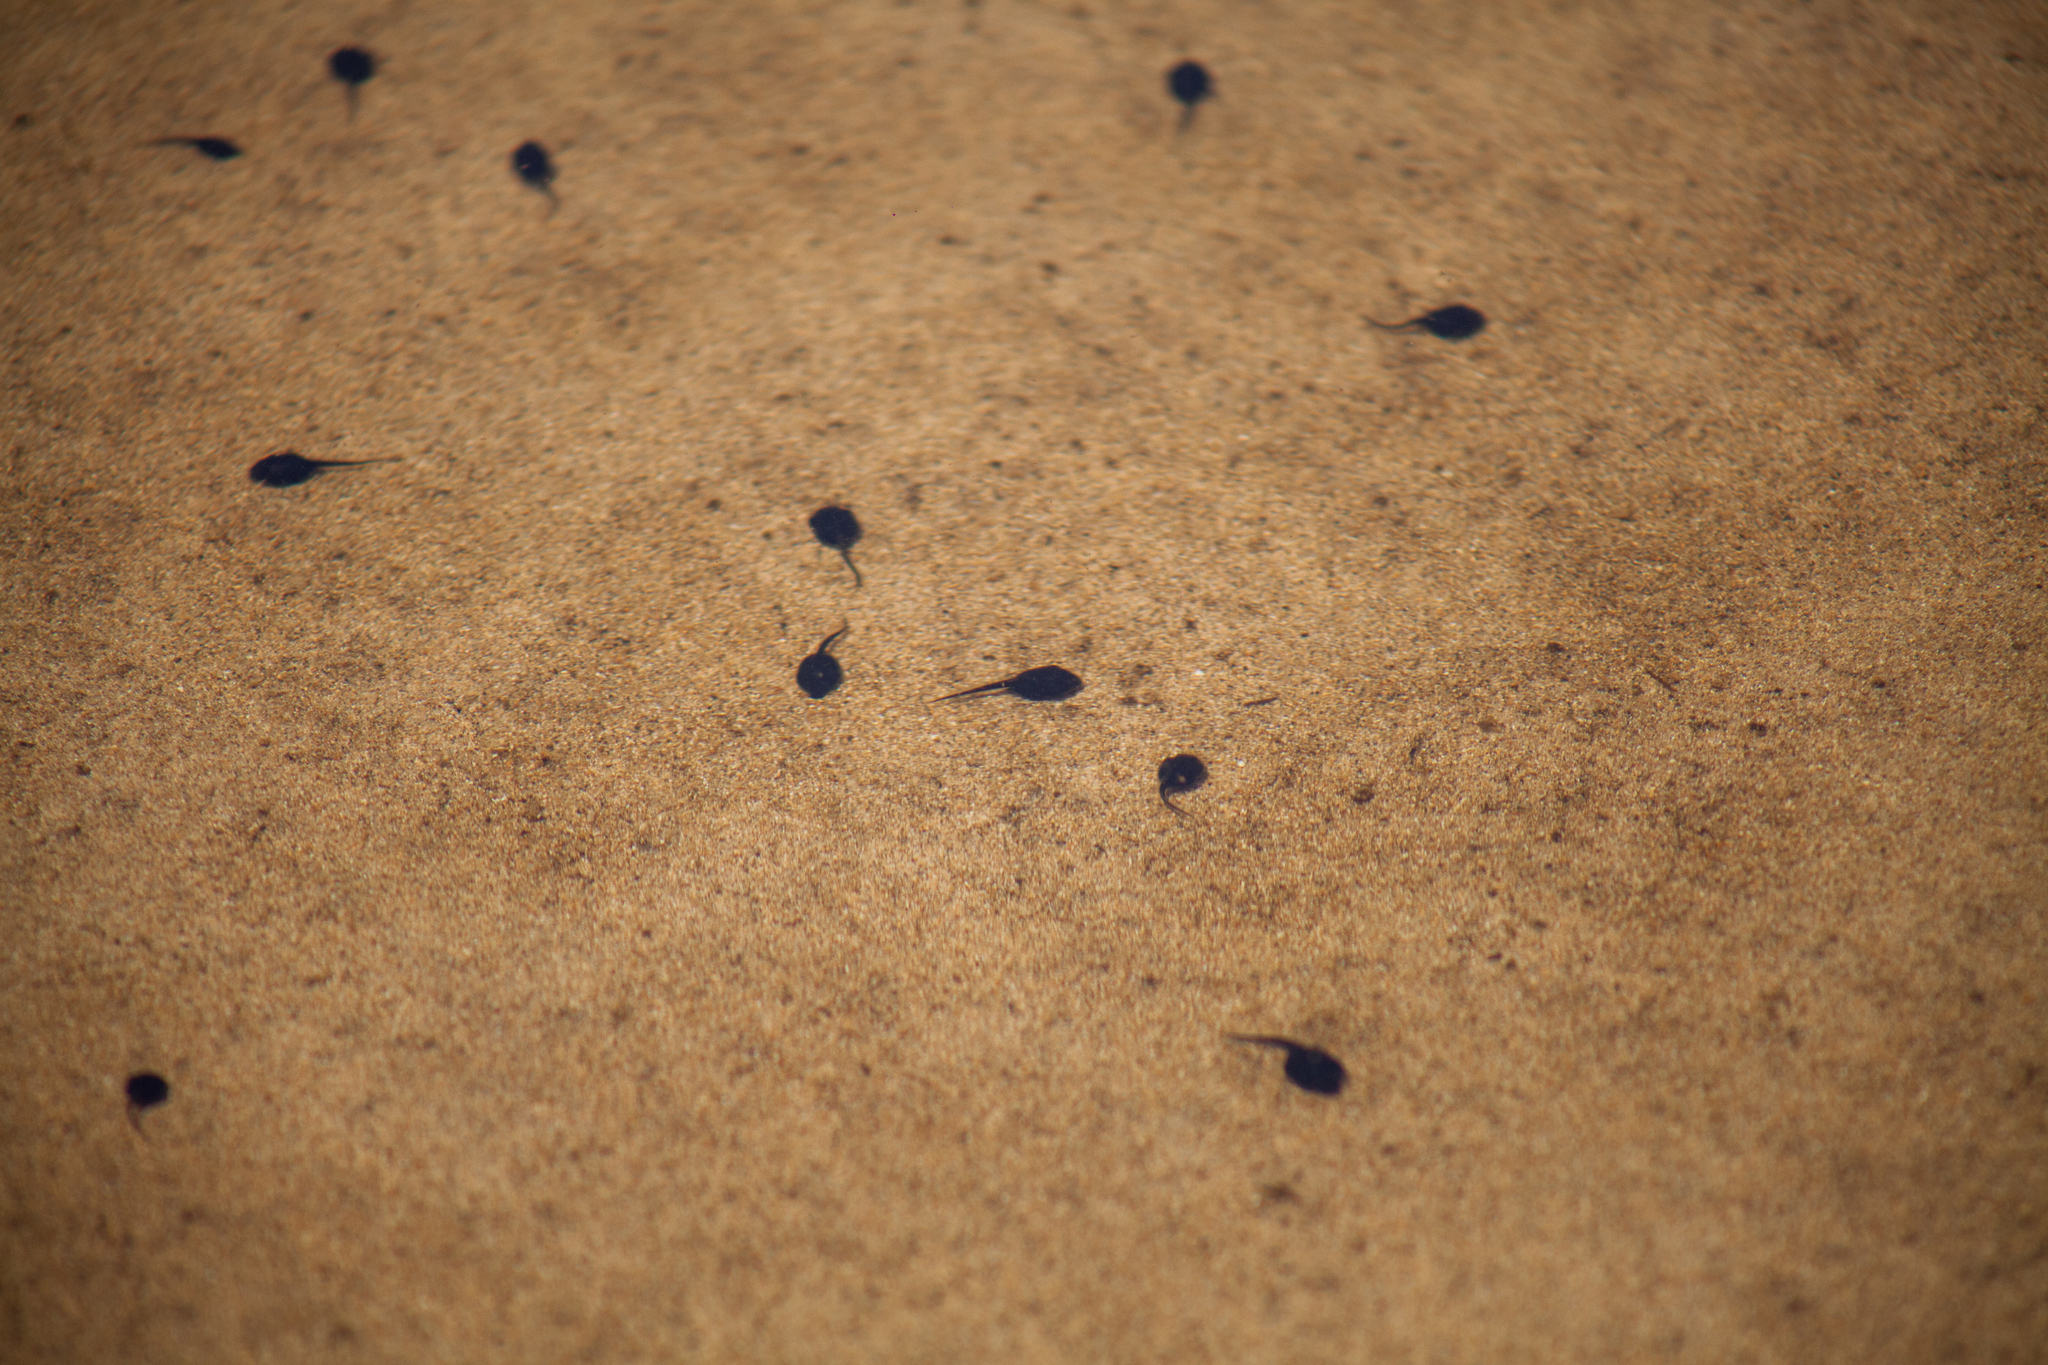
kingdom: Animalia
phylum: Chordata
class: Amphibia
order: Anura
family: Bufonidae
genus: Rhinella
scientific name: Rhinella diptycha
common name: Cope's toad
